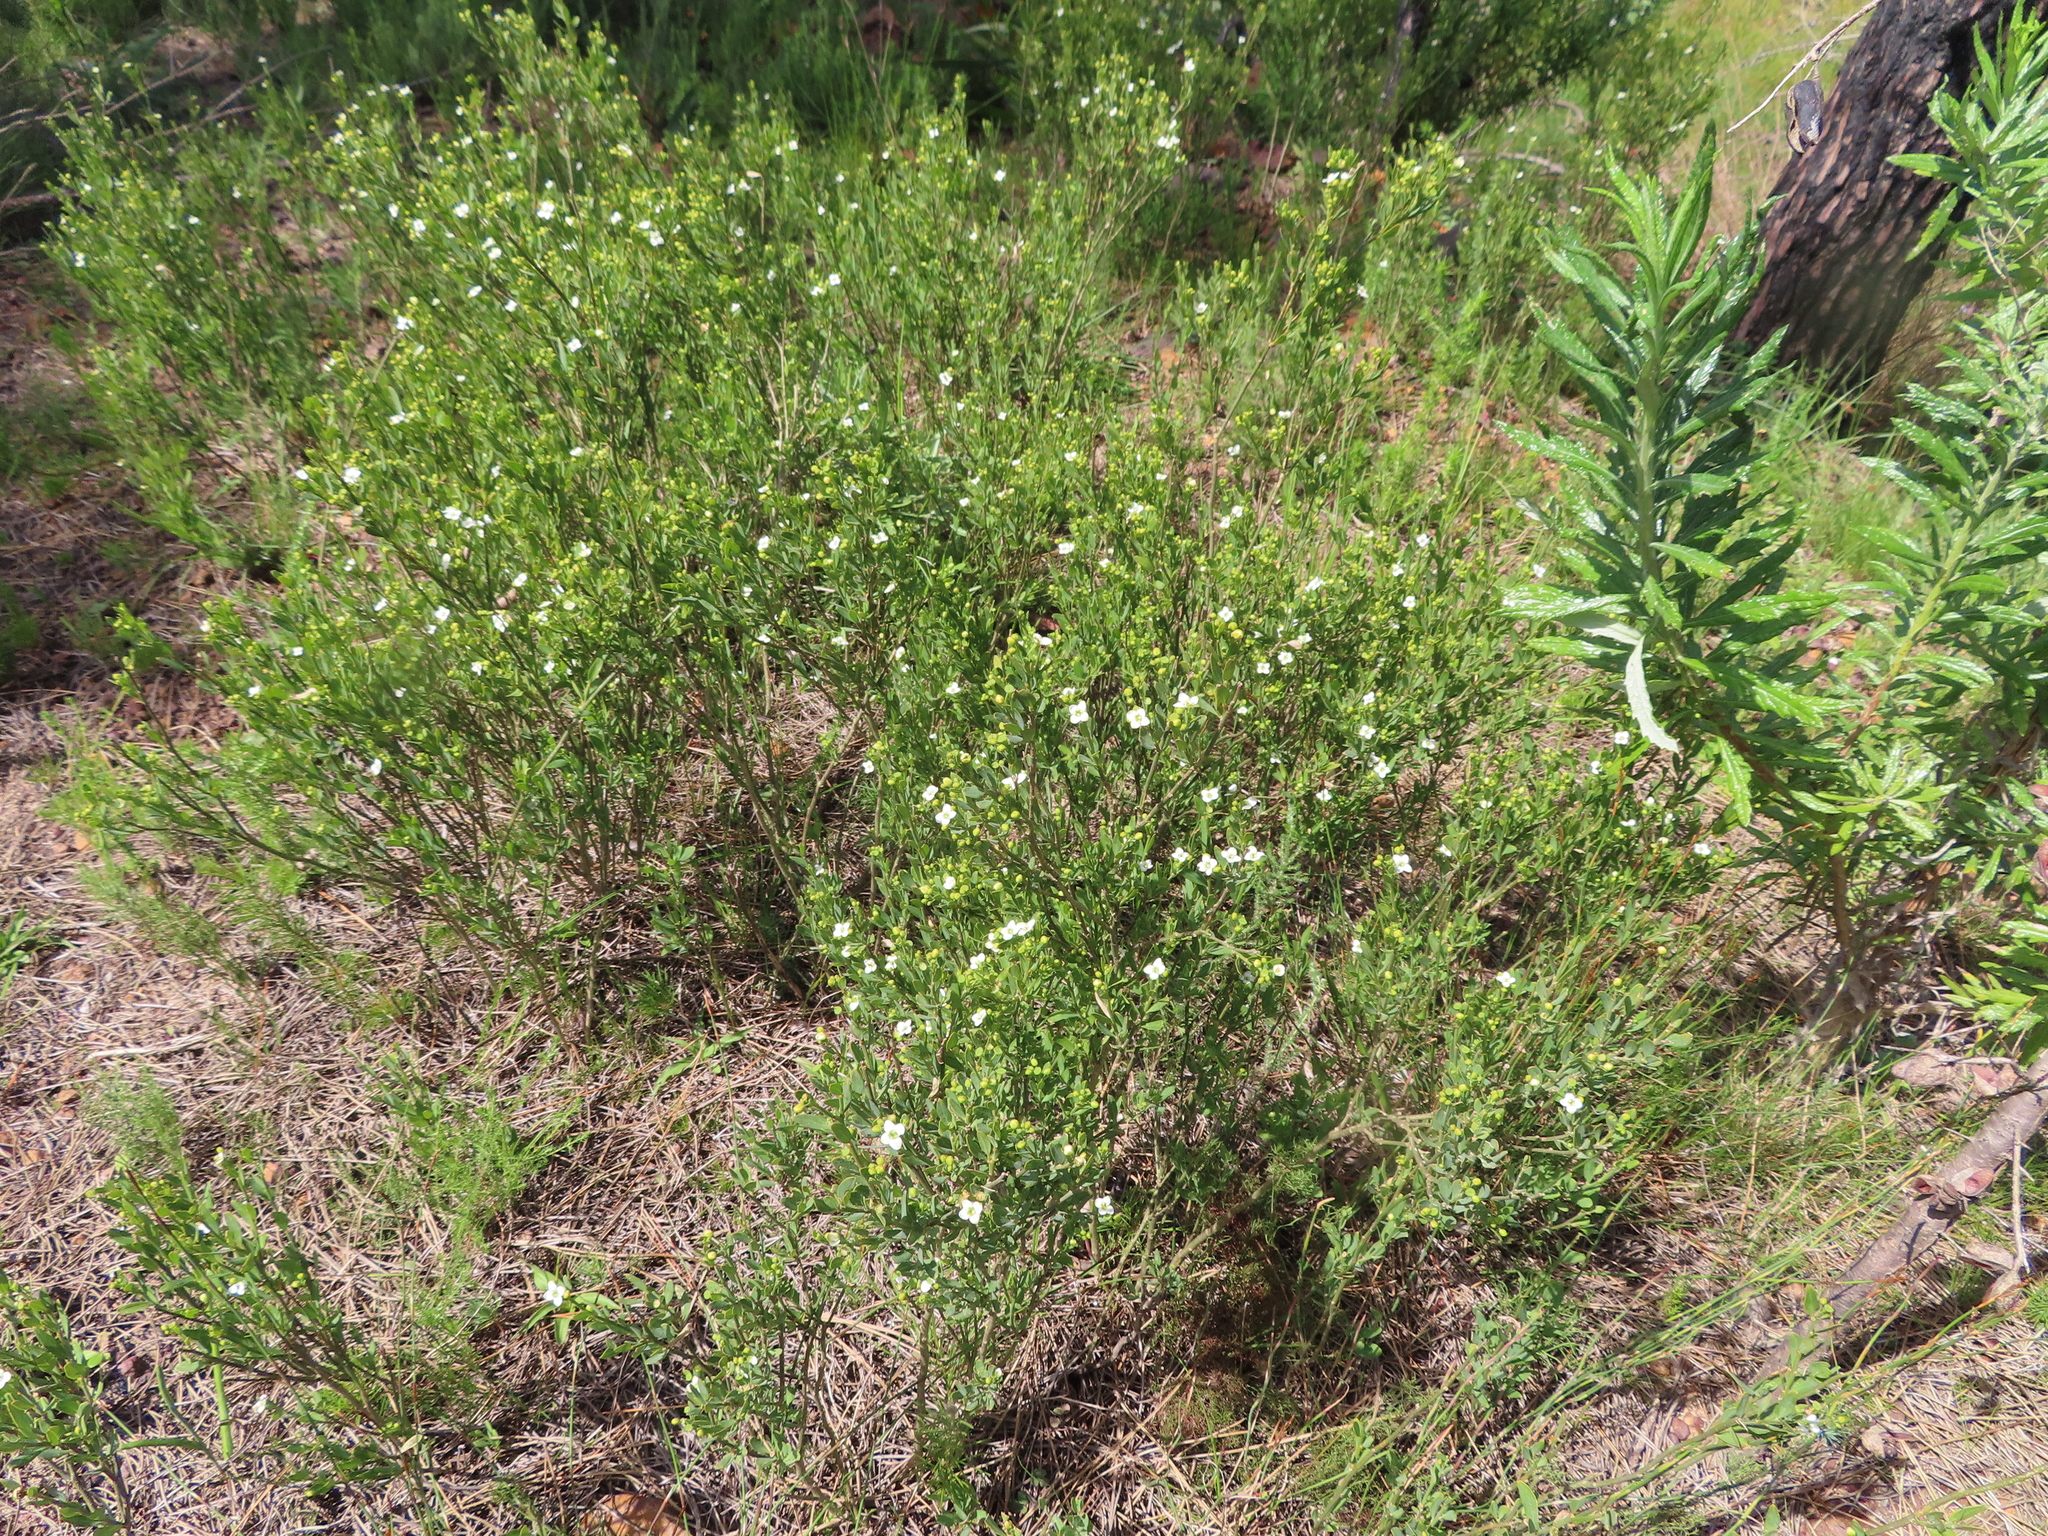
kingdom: Plantae
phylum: Tracheophyta
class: Magnoliopsida
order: Solanales
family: Montiniaceae
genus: Montinia
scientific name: Montinia caryophyllacea
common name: Wild clove-bush
